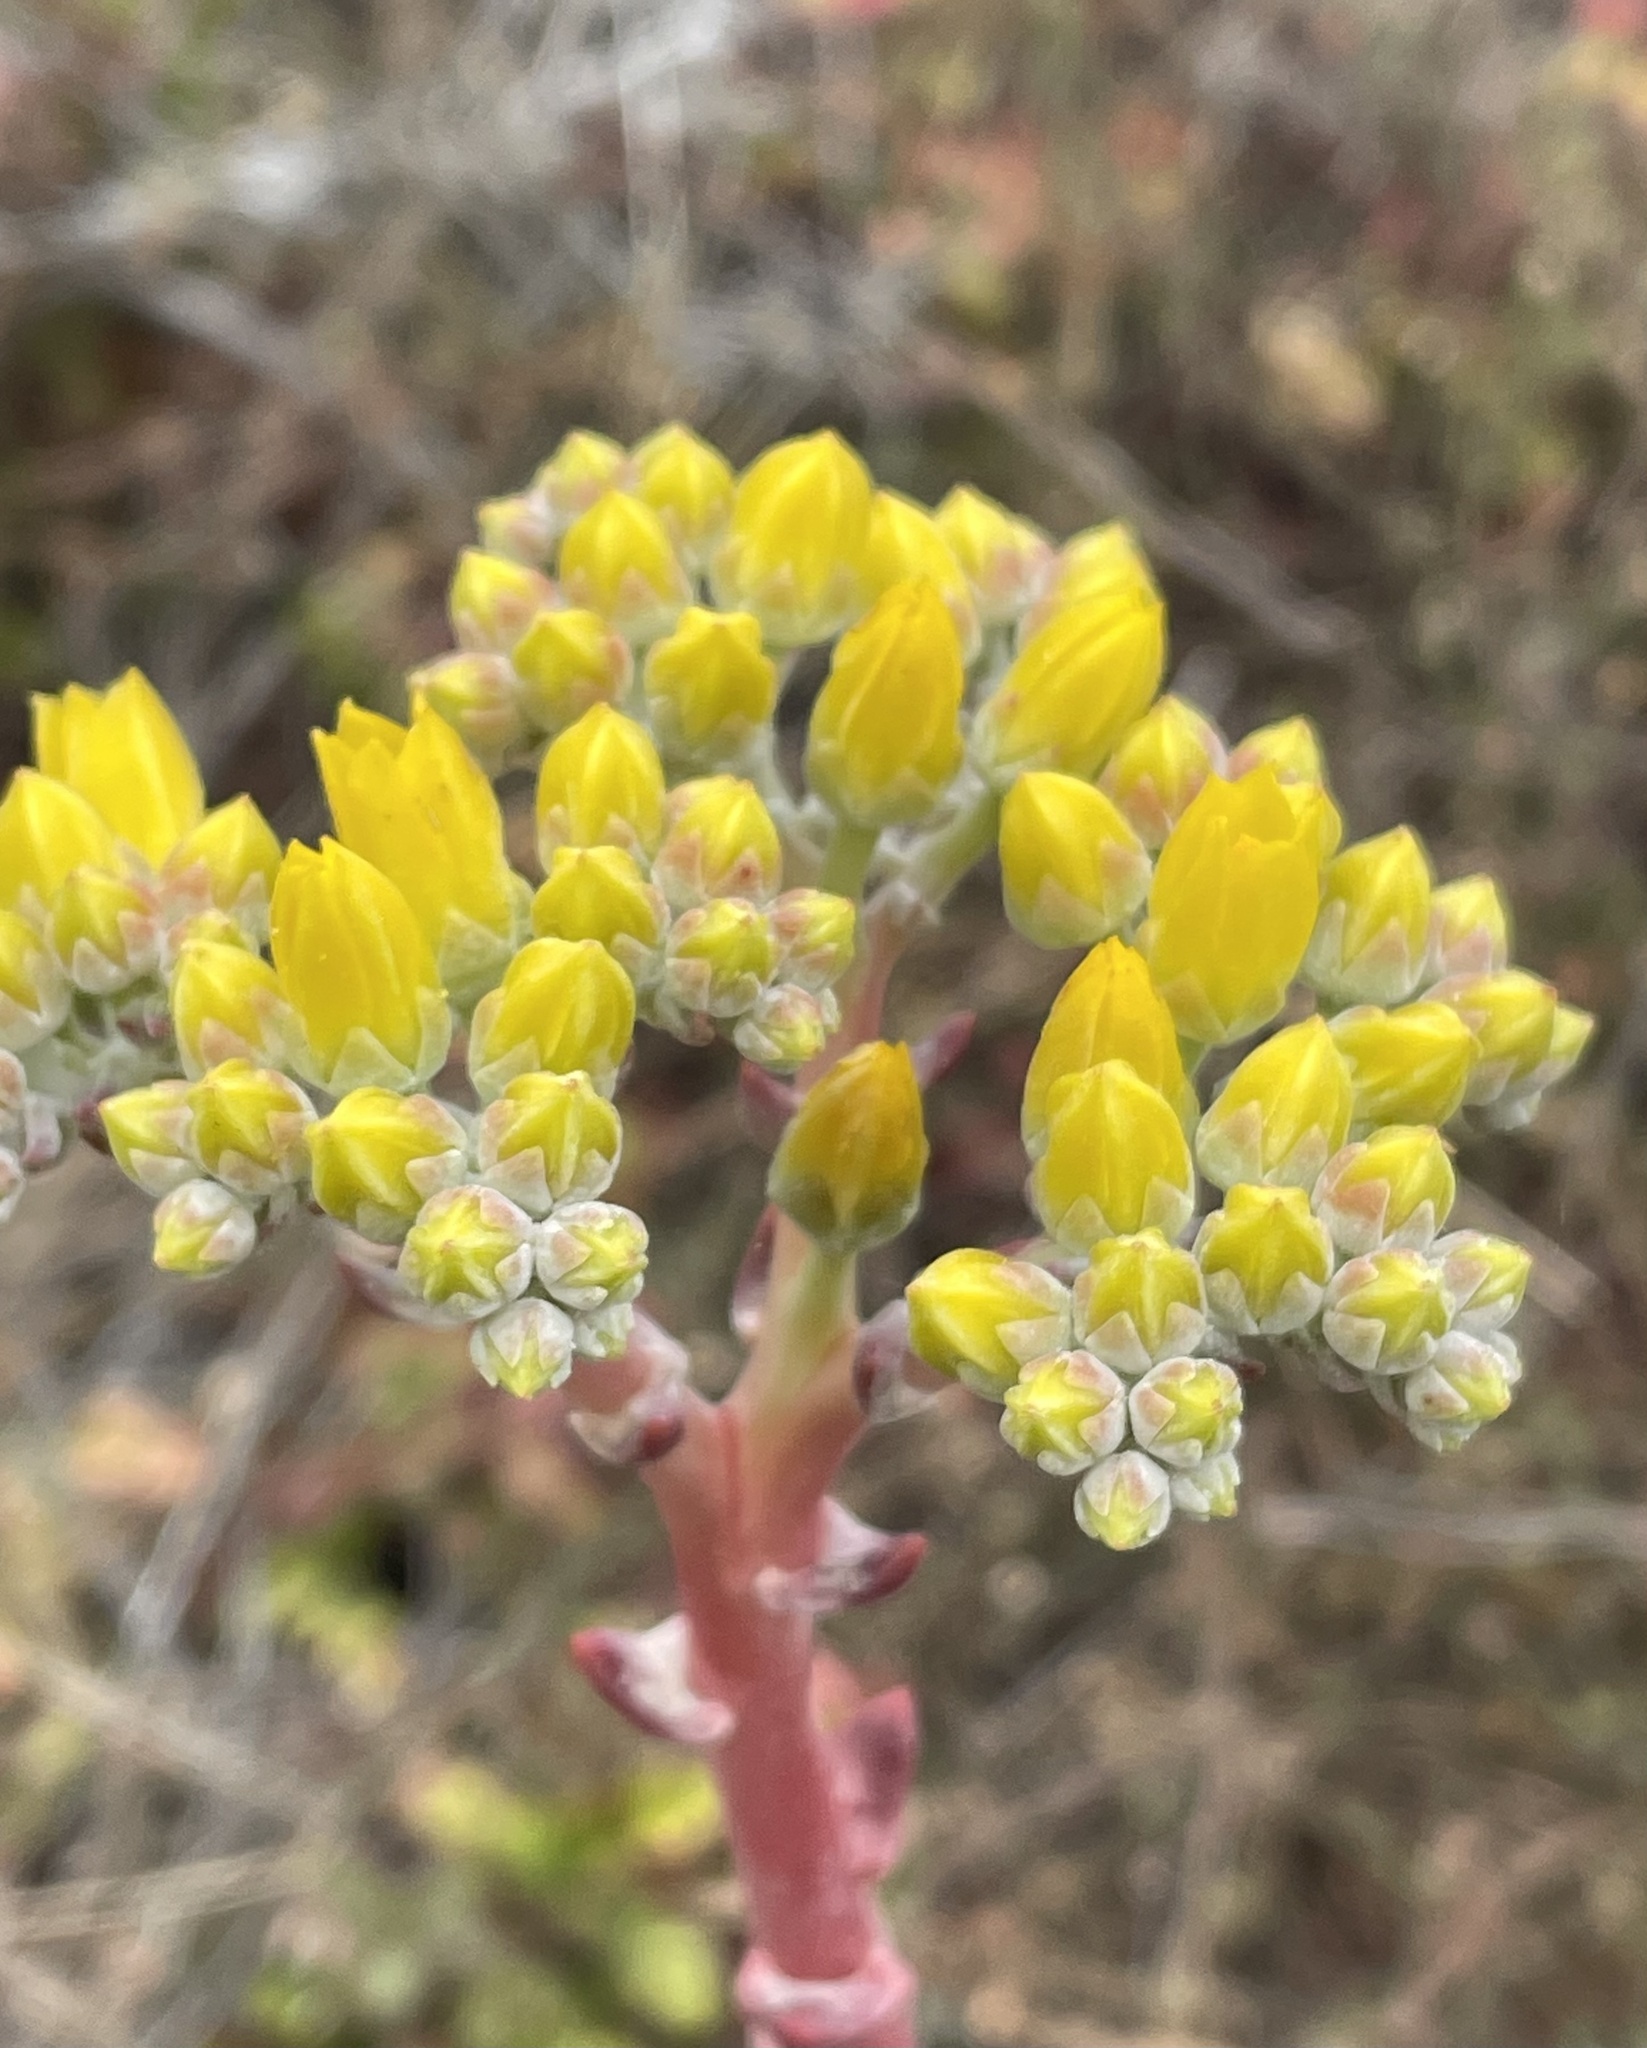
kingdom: Plantae
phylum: Tracheophyta
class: Magnoliopsida
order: Saxifragales
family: Crassulaceae
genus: Dudleya
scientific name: Dudleya caespitosa
